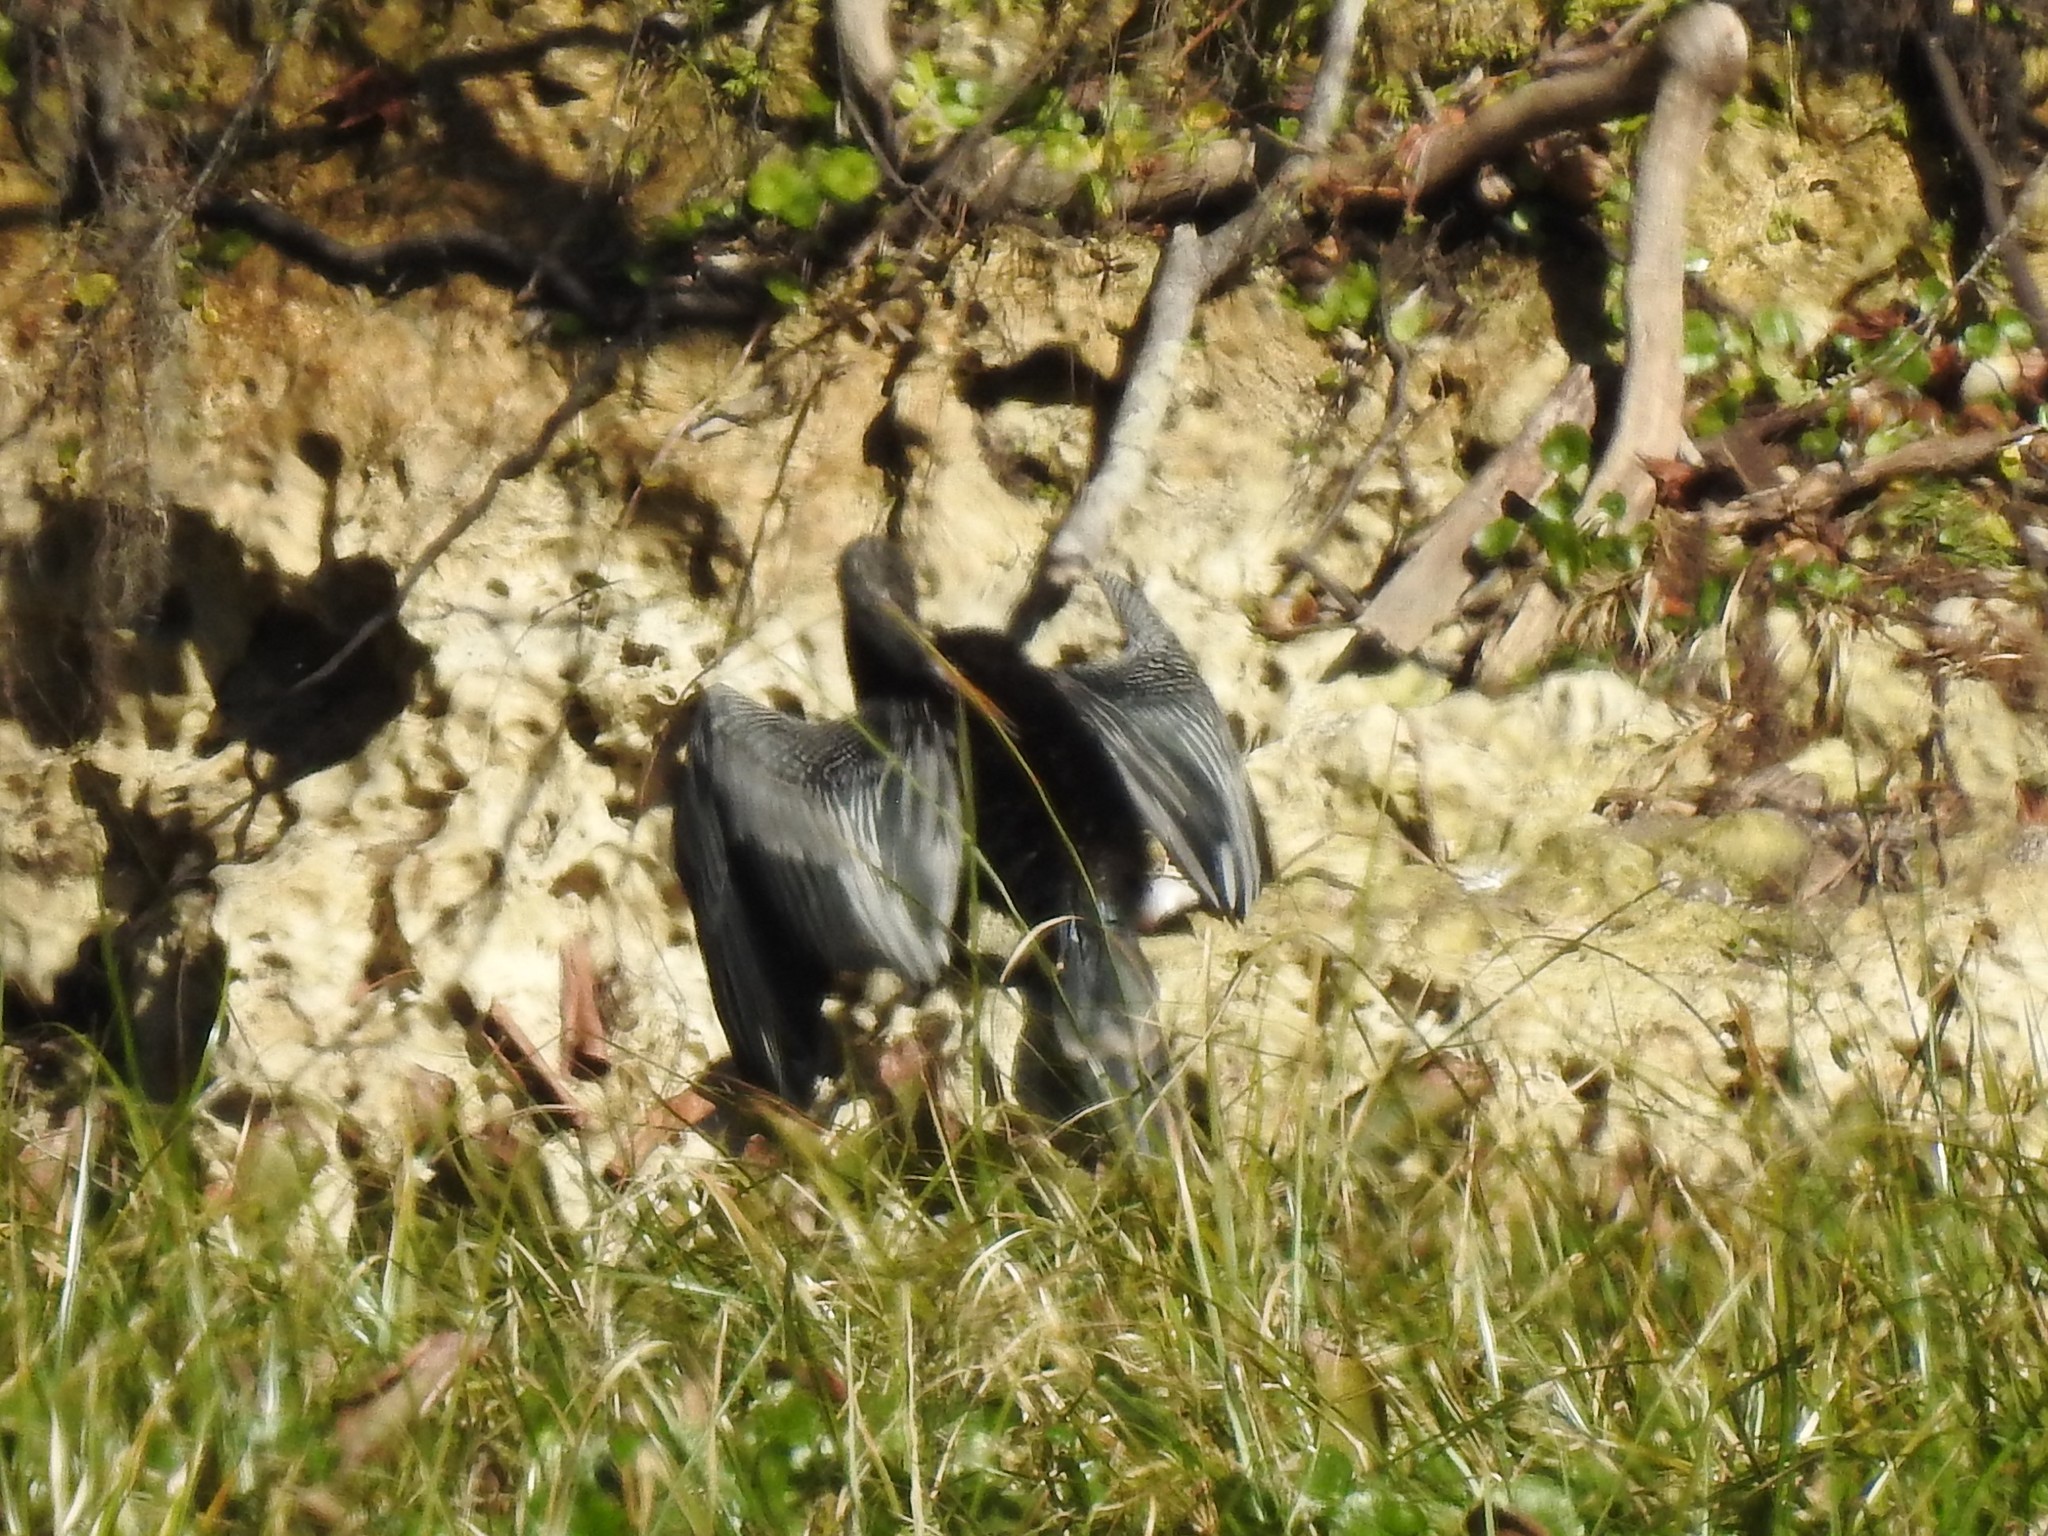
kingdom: Animalia
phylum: Chordata
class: Aves
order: Suliformes
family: Anhingidae
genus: Anhinga
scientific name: Anhinga anhinga
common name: Anhinga
